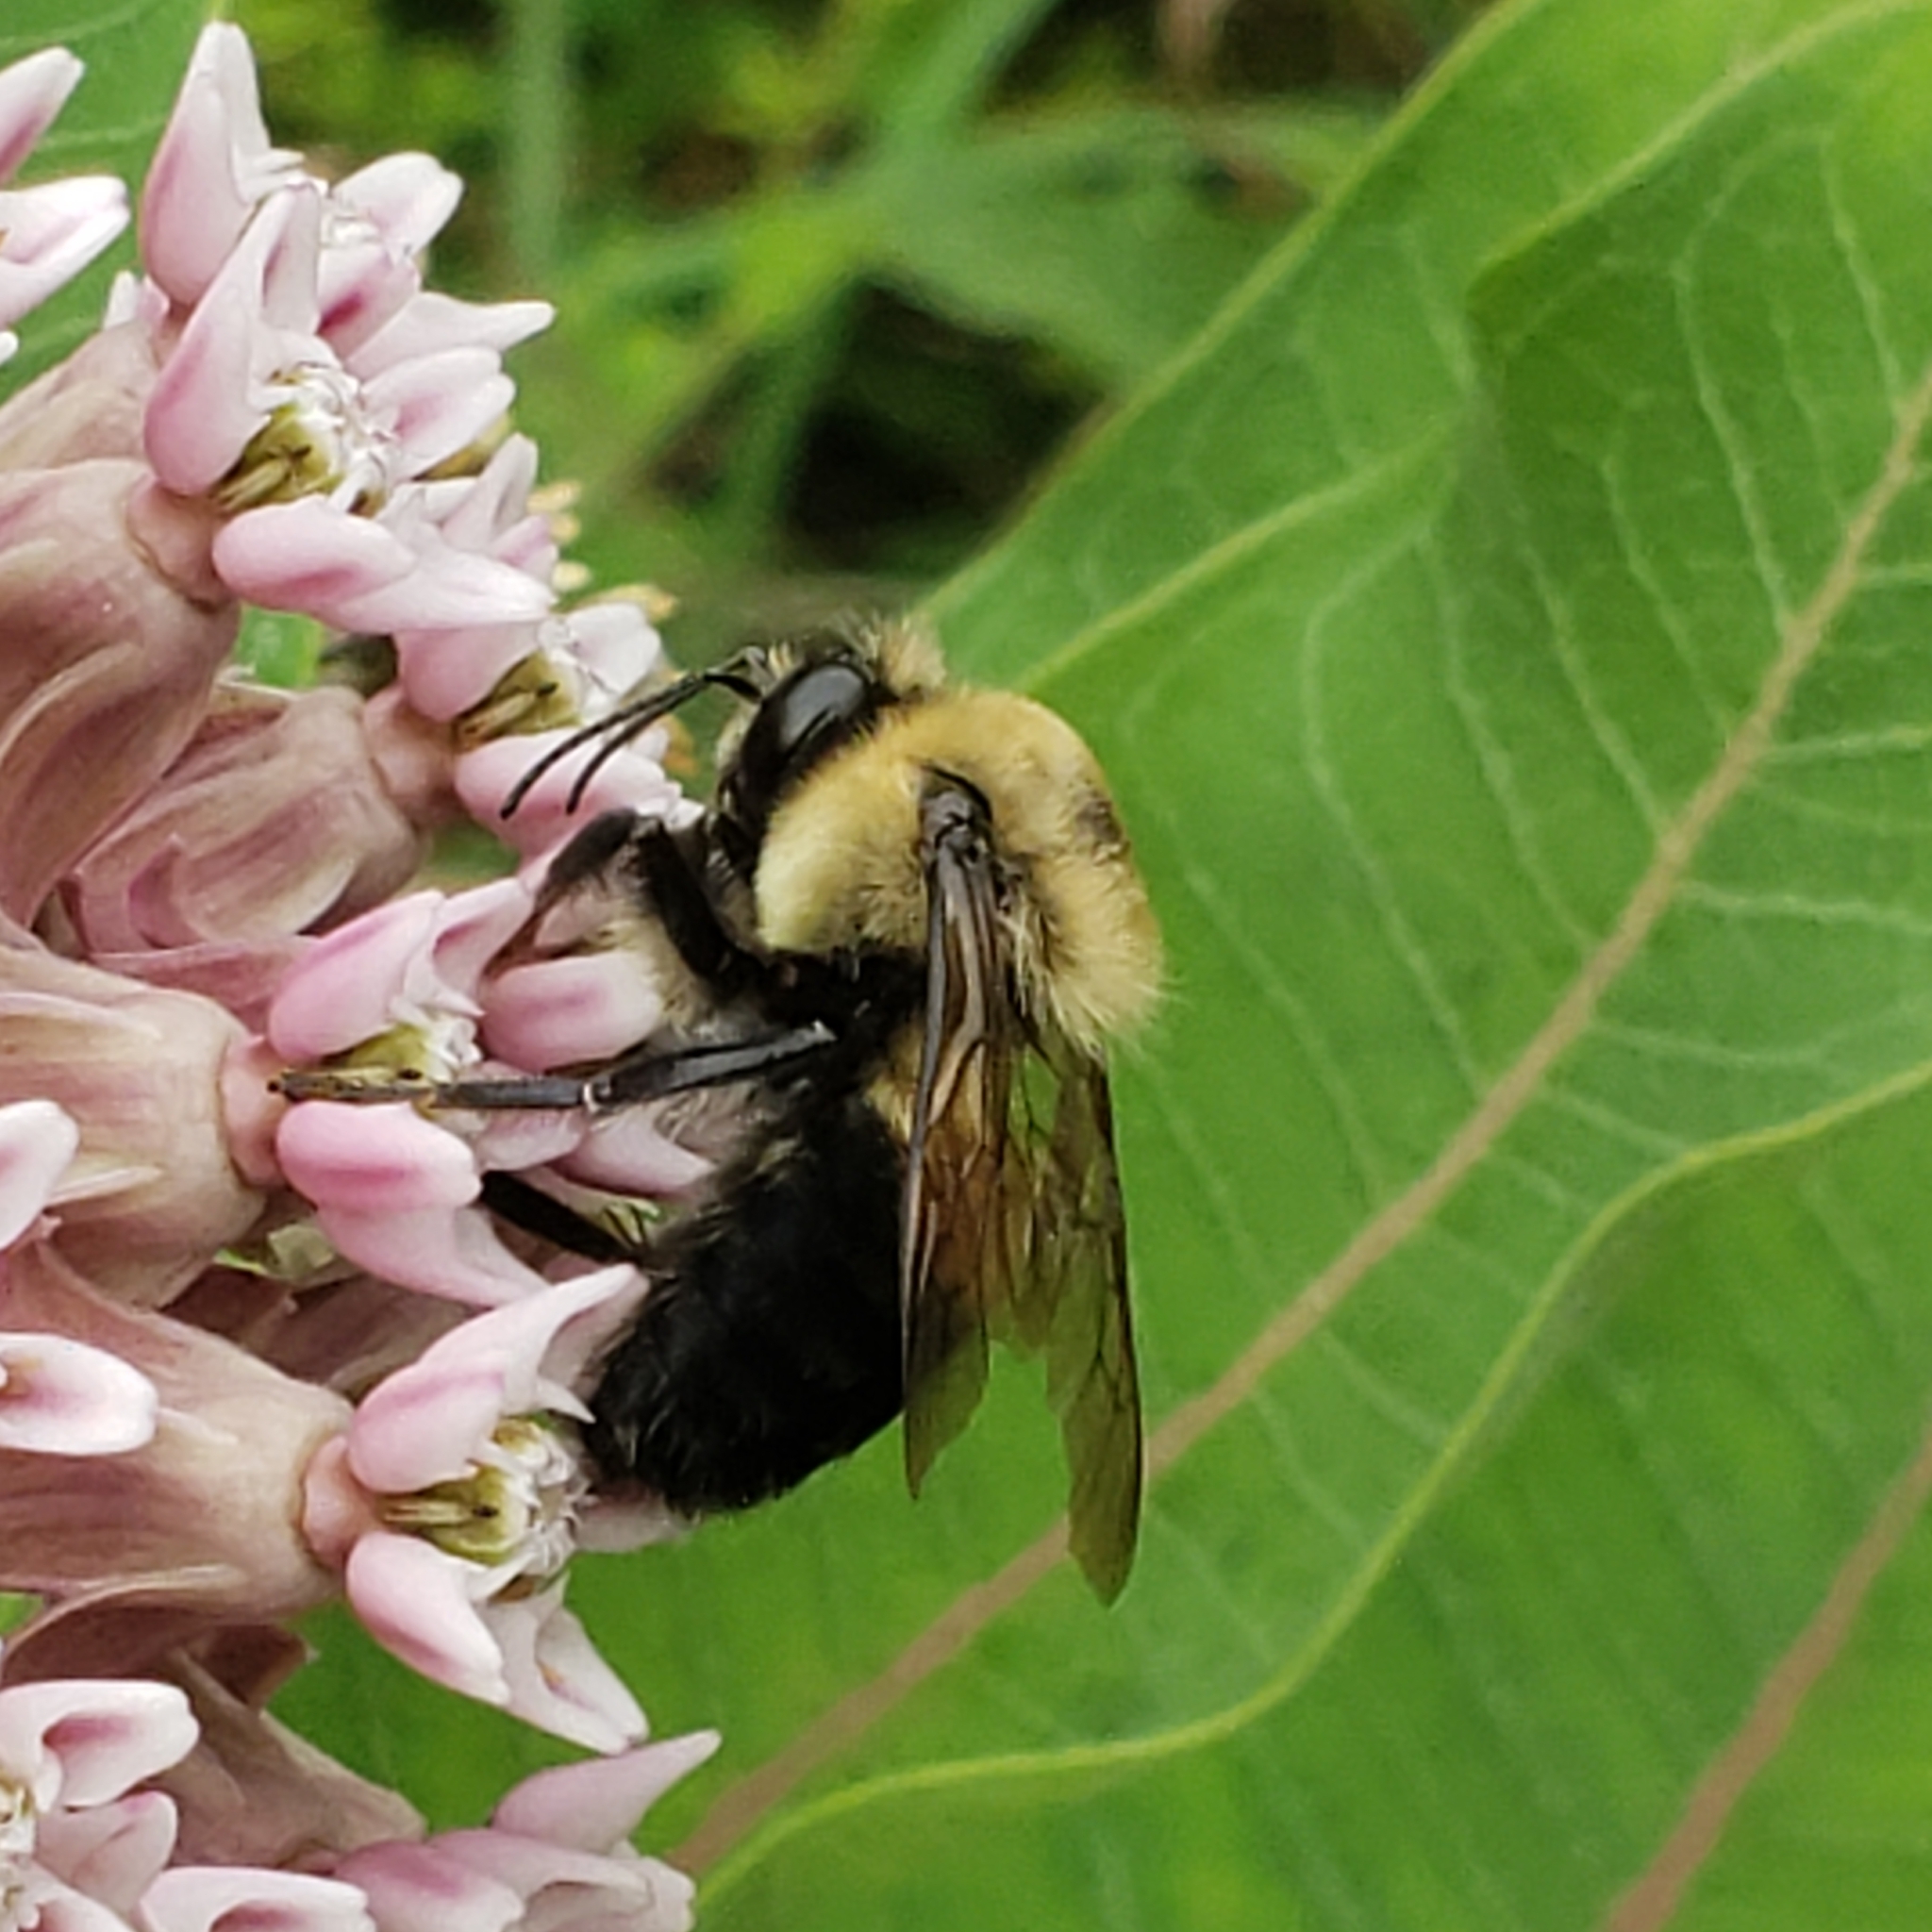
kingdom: Animalia
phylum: Arthropoda
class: Insecta
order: Hymenoptera
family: Apidae
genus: Bombus
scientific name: Bombus griseocollis
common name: Brown-belted bumble bee
